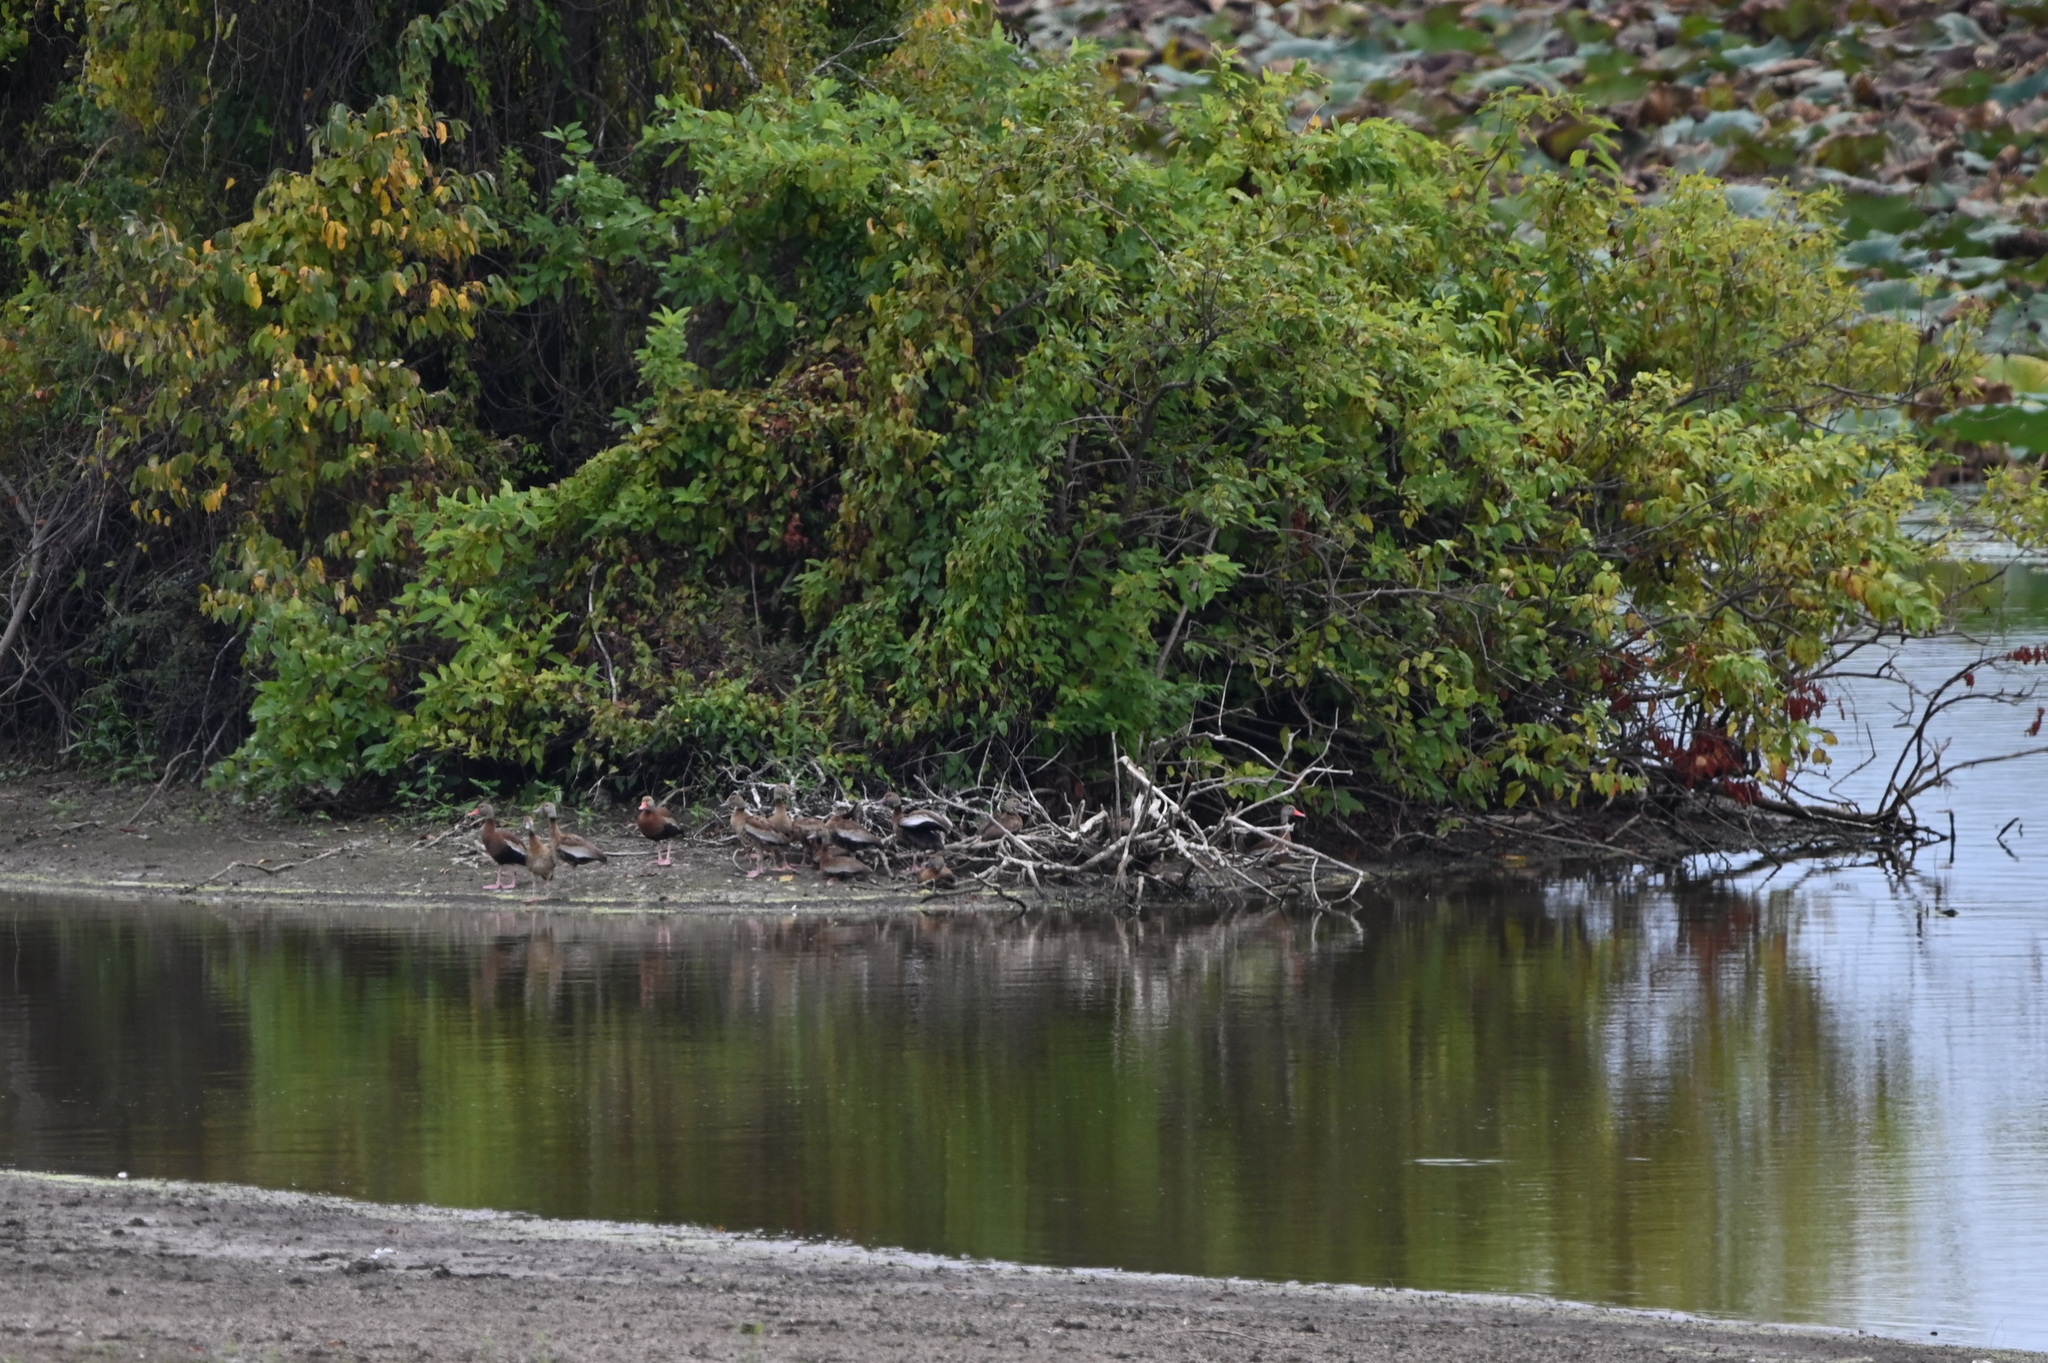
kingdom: Animalia
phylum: Chordata
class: Aves
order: Anseriformes
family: Anatidae
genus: Dendrocygna
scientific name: Dendrocygna autumnalis
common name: Black-bellied whistling duck
